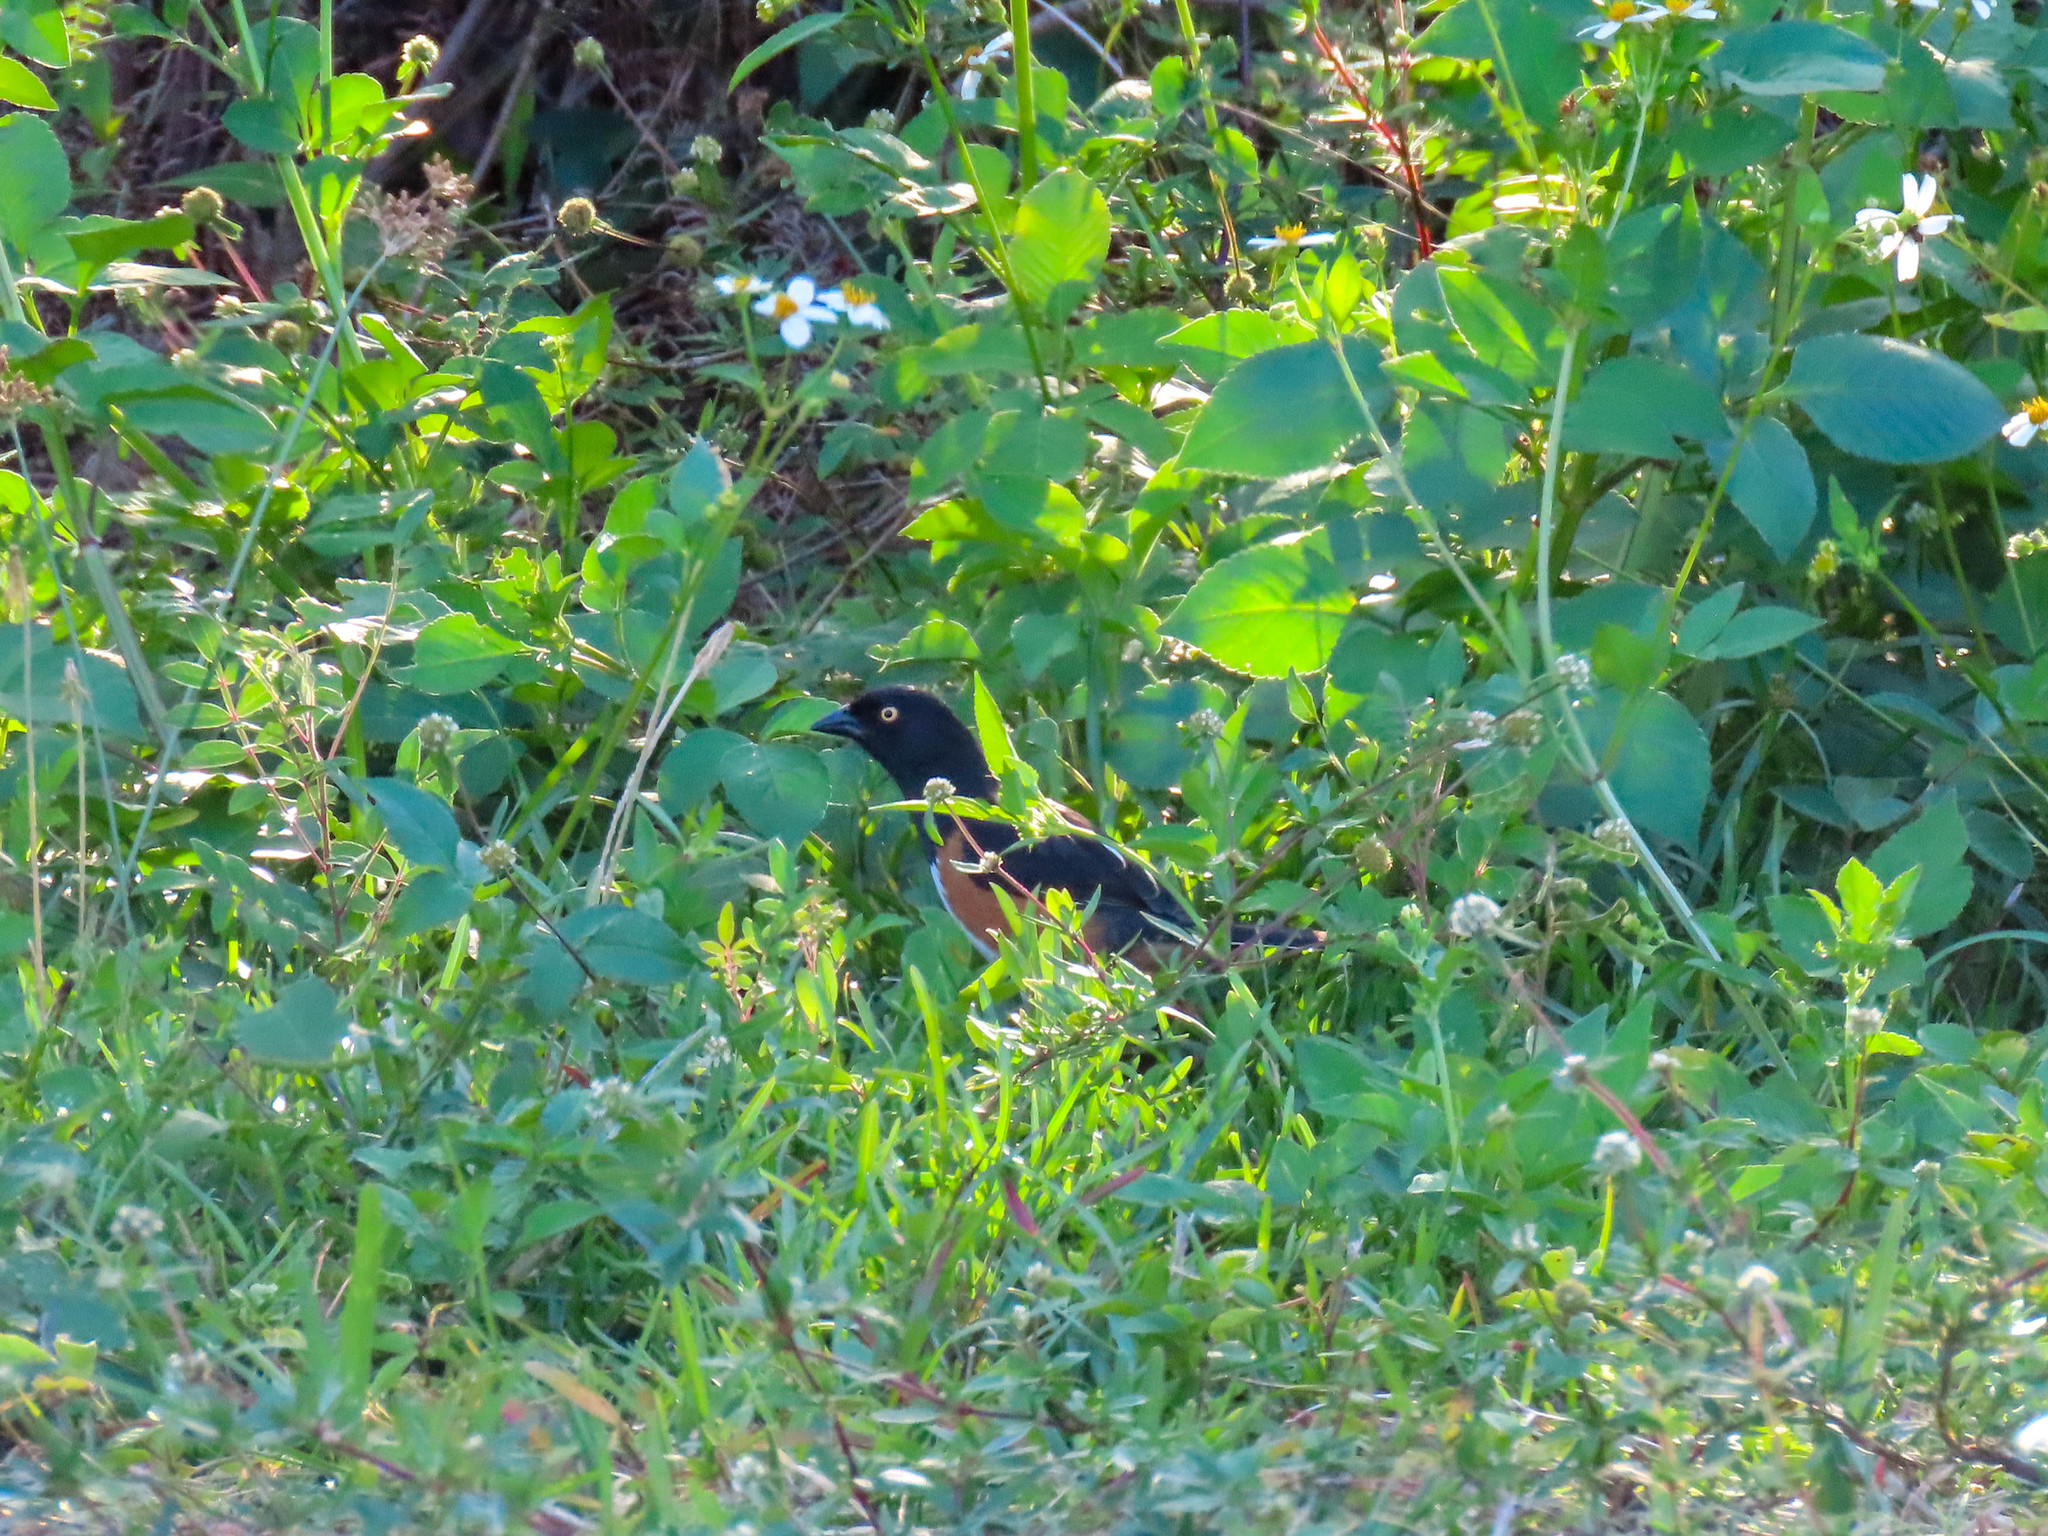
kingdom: Animalia
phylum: Chordata
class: Aves
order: Passeriformes
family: Passerellidae
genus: Pipilo
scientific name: Pipilo erythrophthalmus
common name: Eastern towhee
